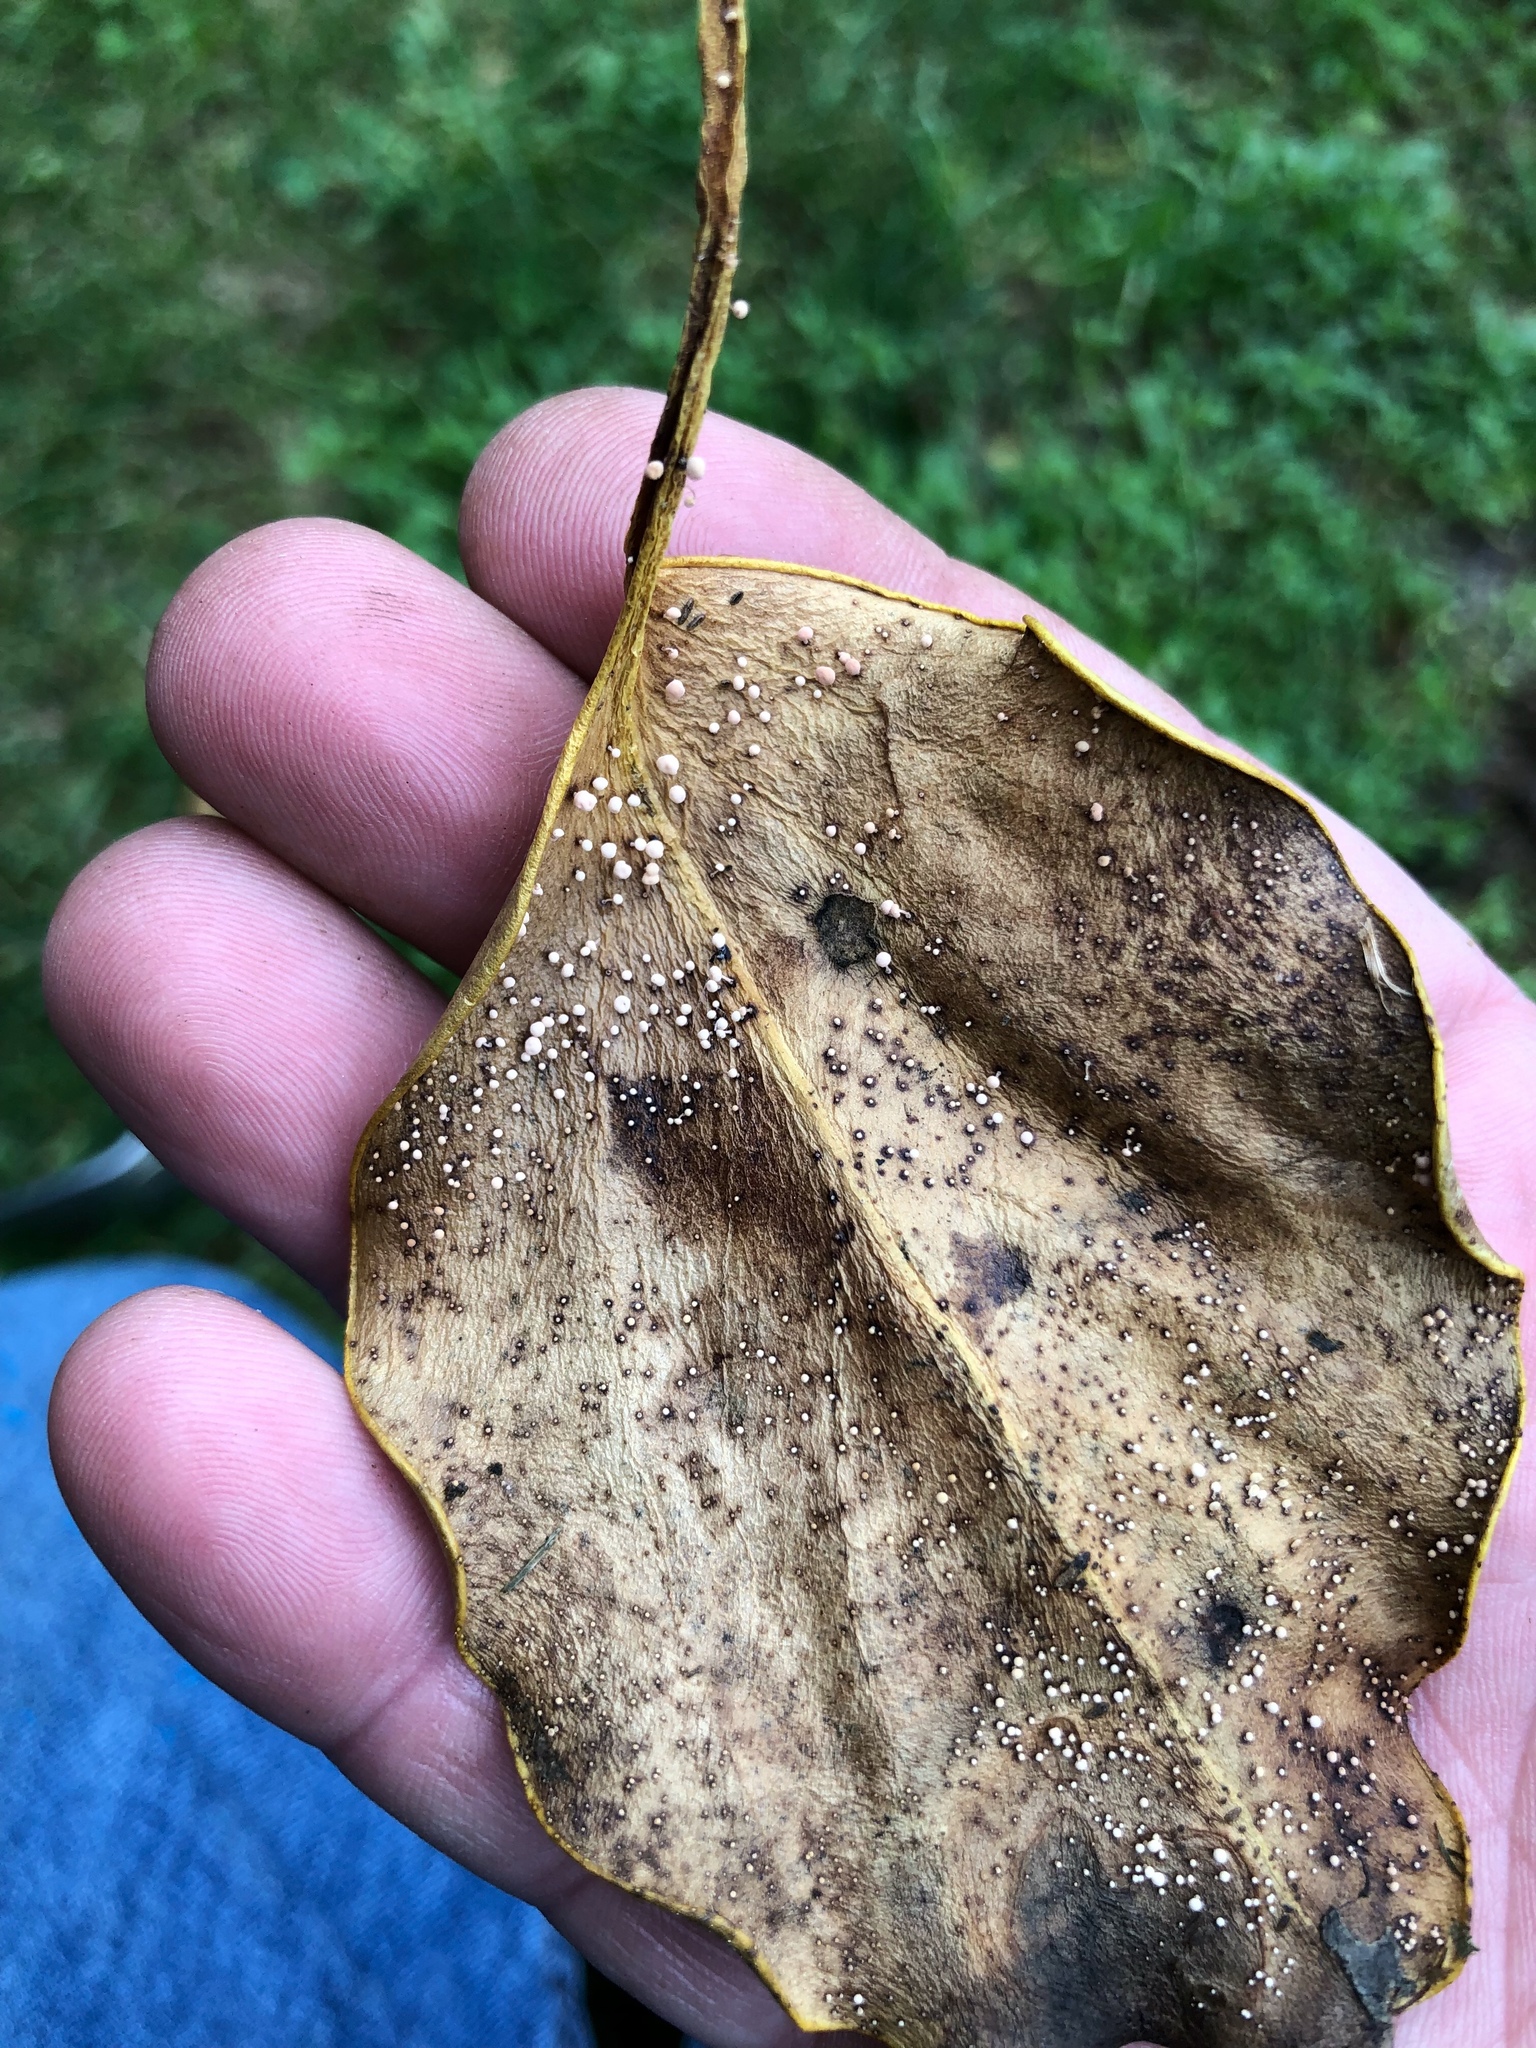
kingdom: Fungi
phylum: Basidiomycota
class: Agaricomycetes
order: Agaricales
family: Physalacriaceae
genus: Physalacria
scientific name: Physalacria stilboidea
